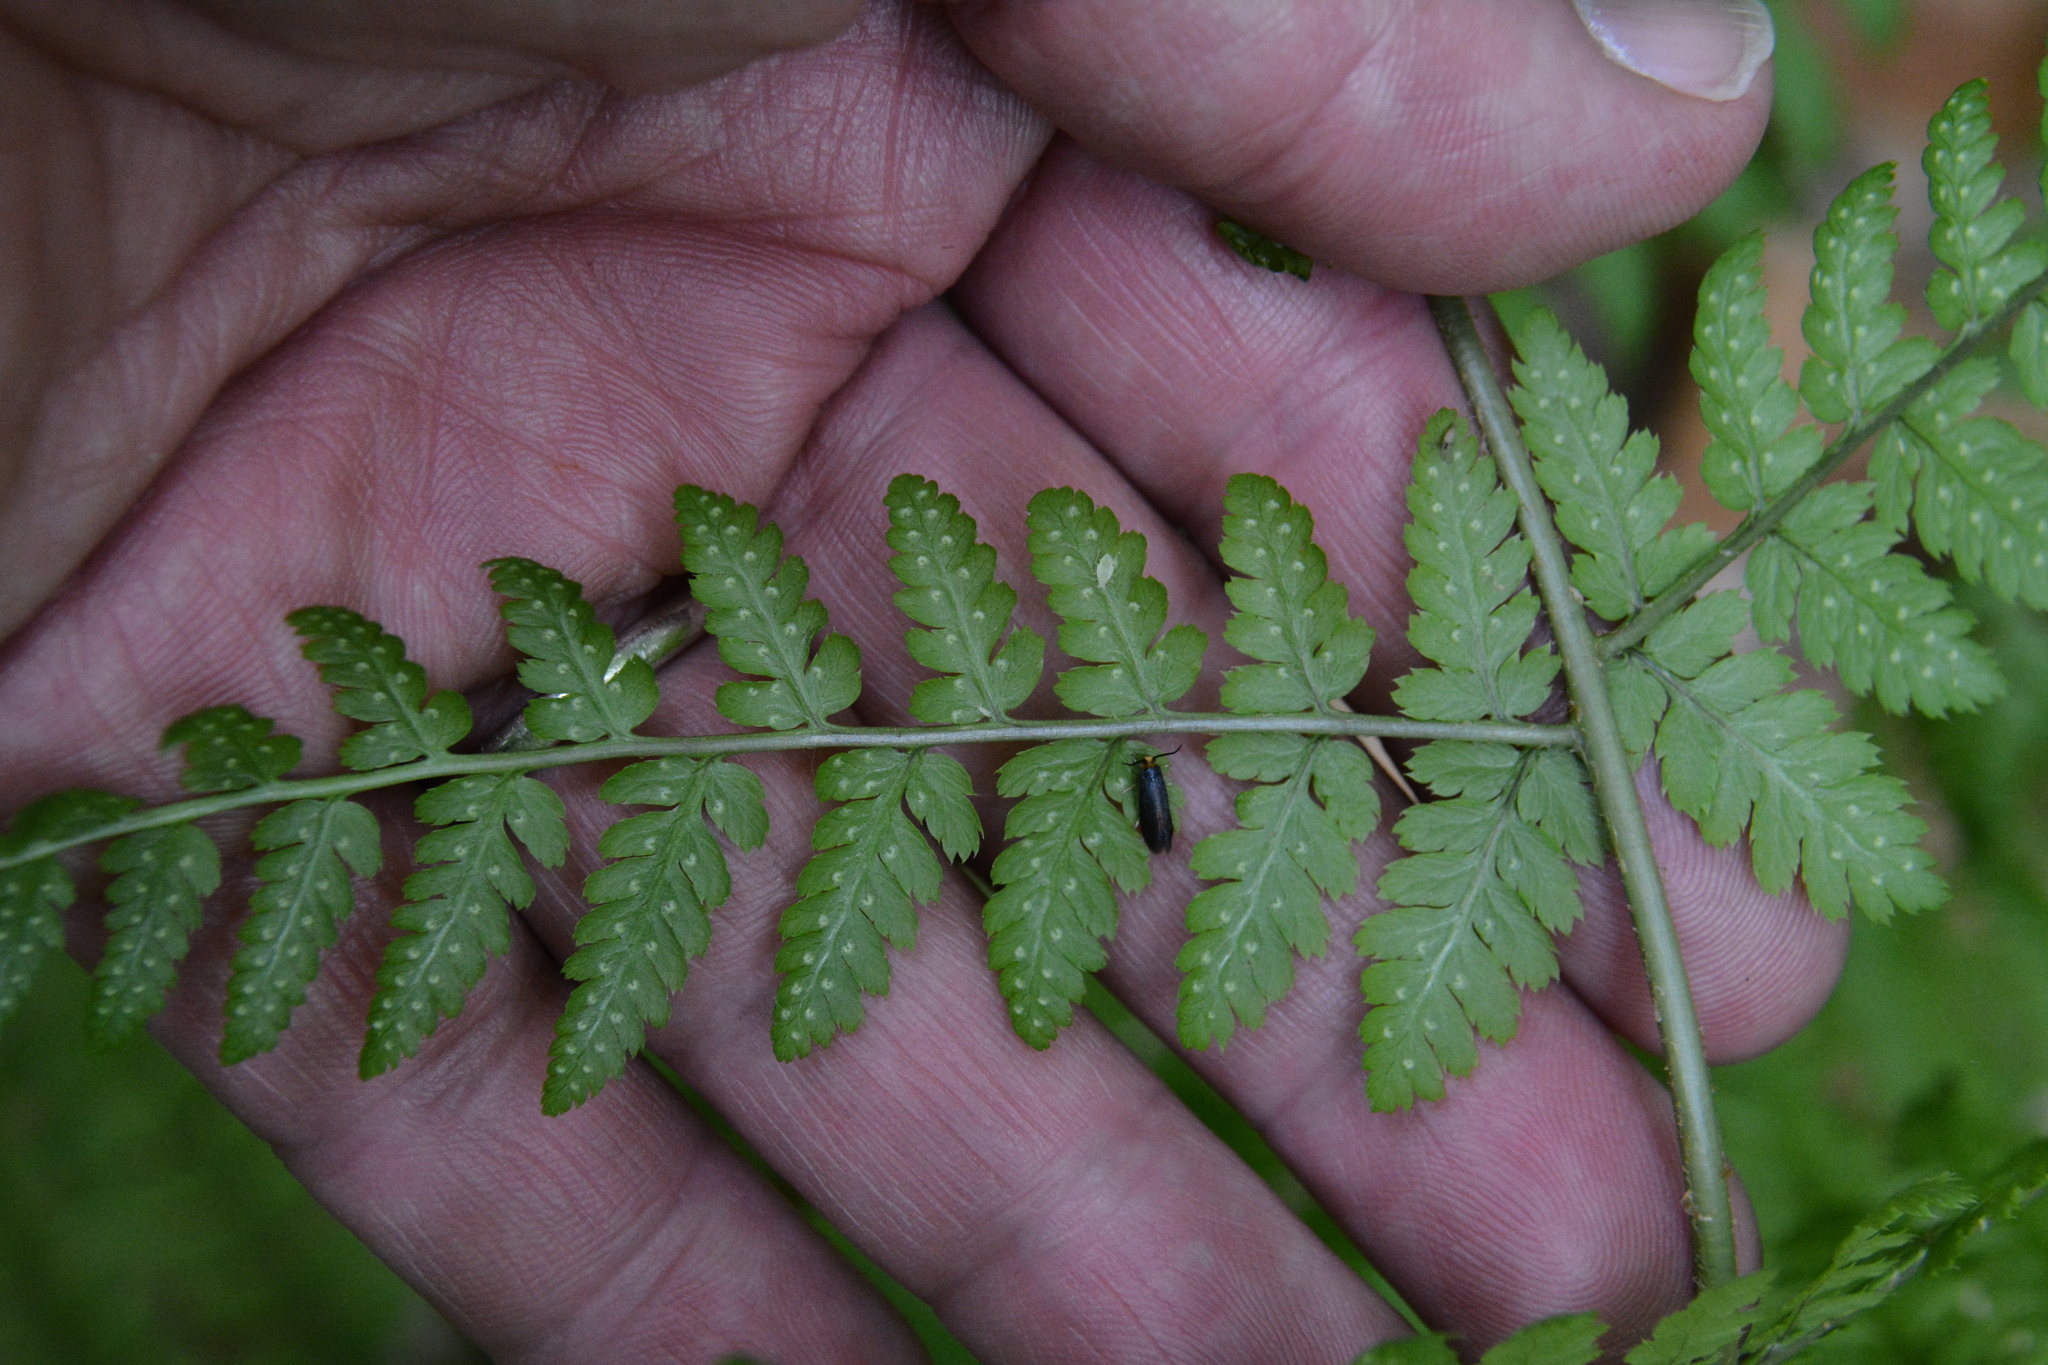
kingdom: Plantae
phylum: Tracheophyta
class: Polypodiopsida
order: Polypodiales
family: Dryopteridaceae
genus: Dryopteris
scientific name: Dryopteris campyloptera
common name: Mountain wood fern
